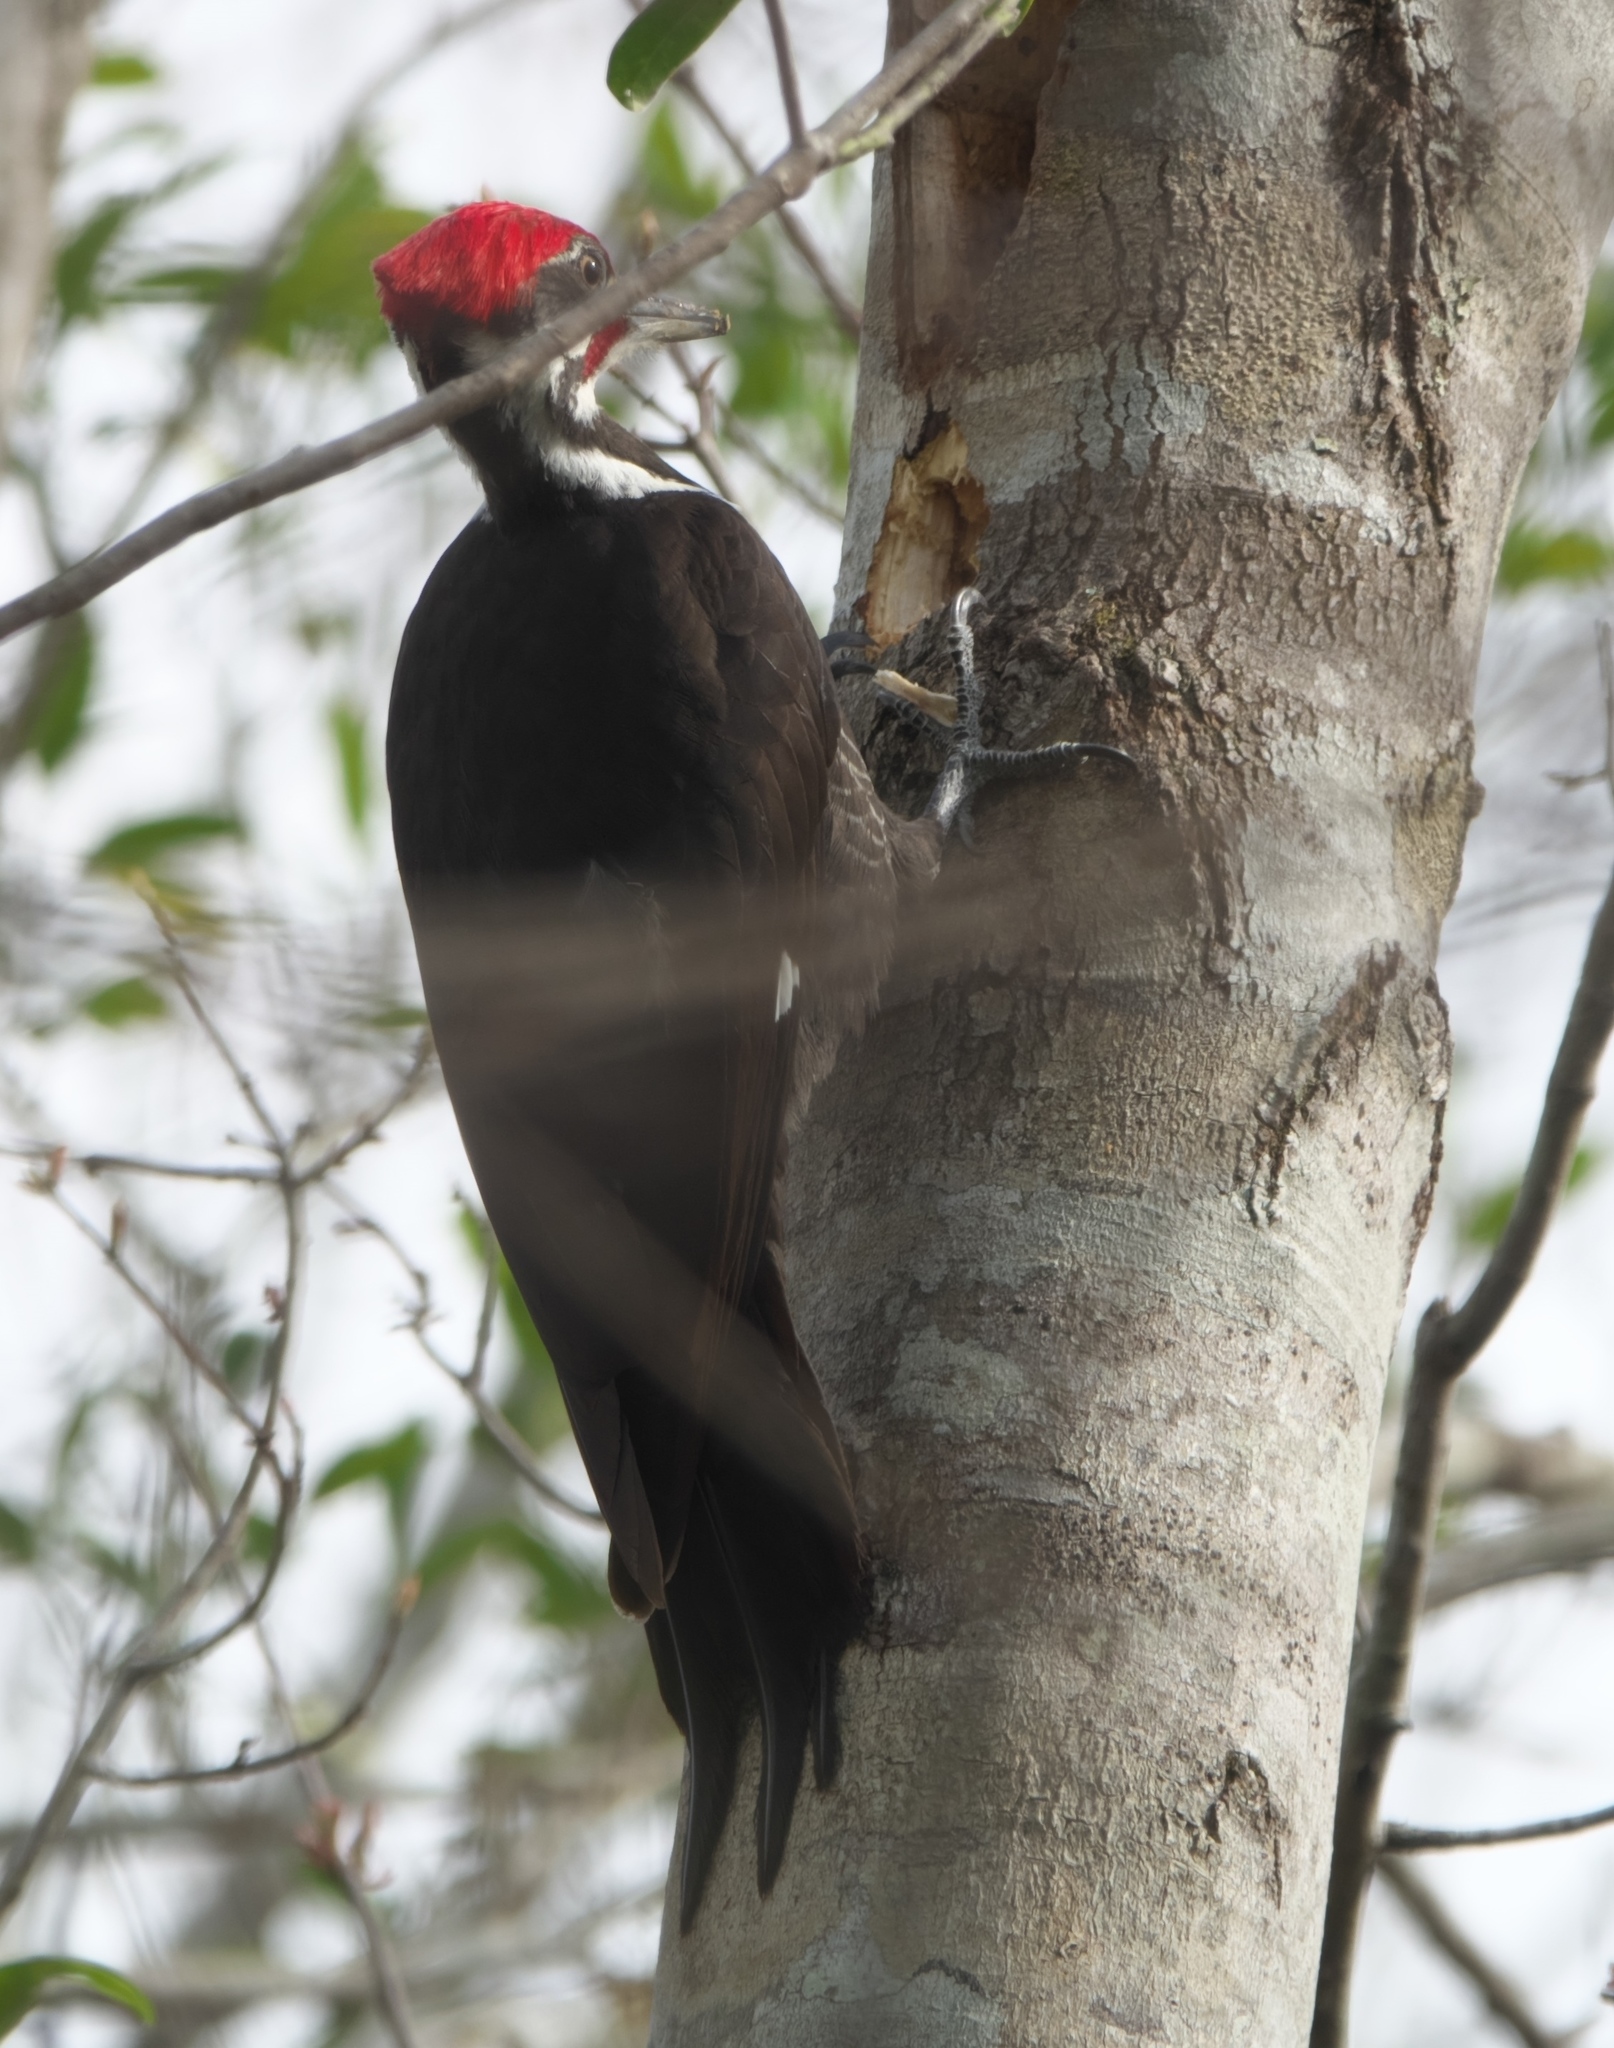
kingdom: Animalia
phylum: Chordata
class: Aves
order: Piciformes
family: Picidae
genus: Dryocopus
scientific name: Dryocopus pileatus
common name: Pileated woodpecker
